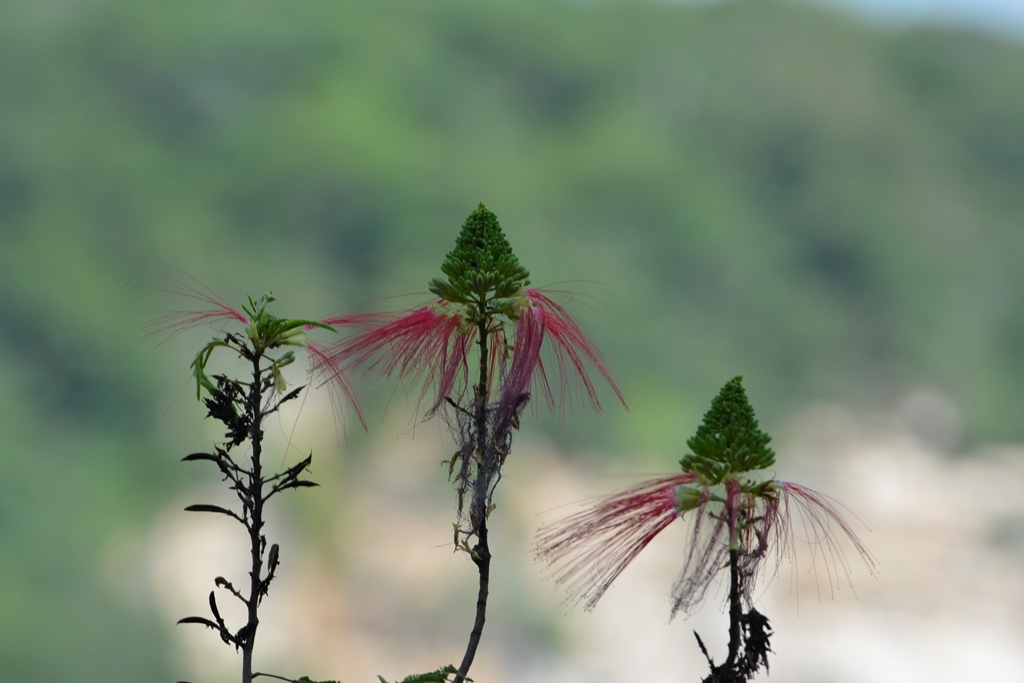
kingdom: Plantae
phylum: Tracheophyta
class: Magnoliopsida
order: Fabales
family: Fabaceae
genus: Calliandra
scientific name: Calliandra houstoniana
